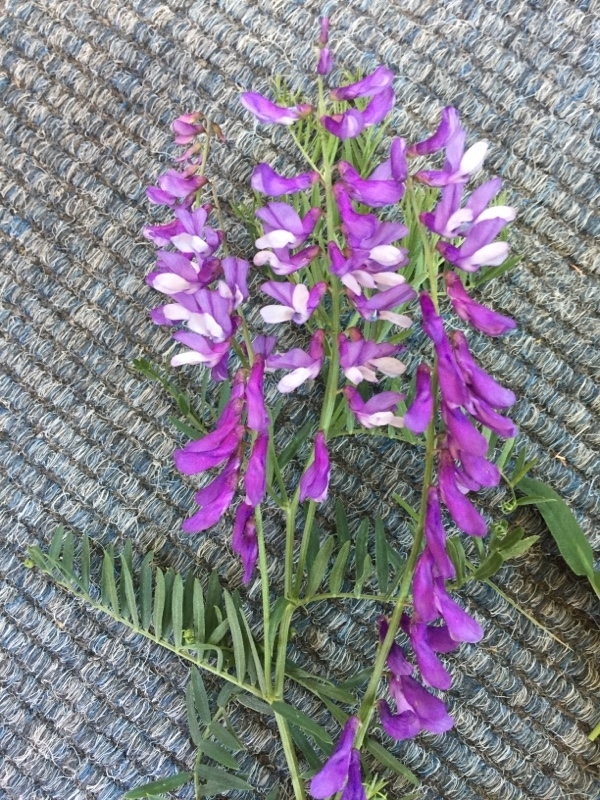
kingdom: Plantae
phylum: Tracheophyta
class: Magnoliopsida
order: Fabales
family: Fabaceae
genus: Vicia
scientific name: Vicia villosa
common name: Fodder vetch
